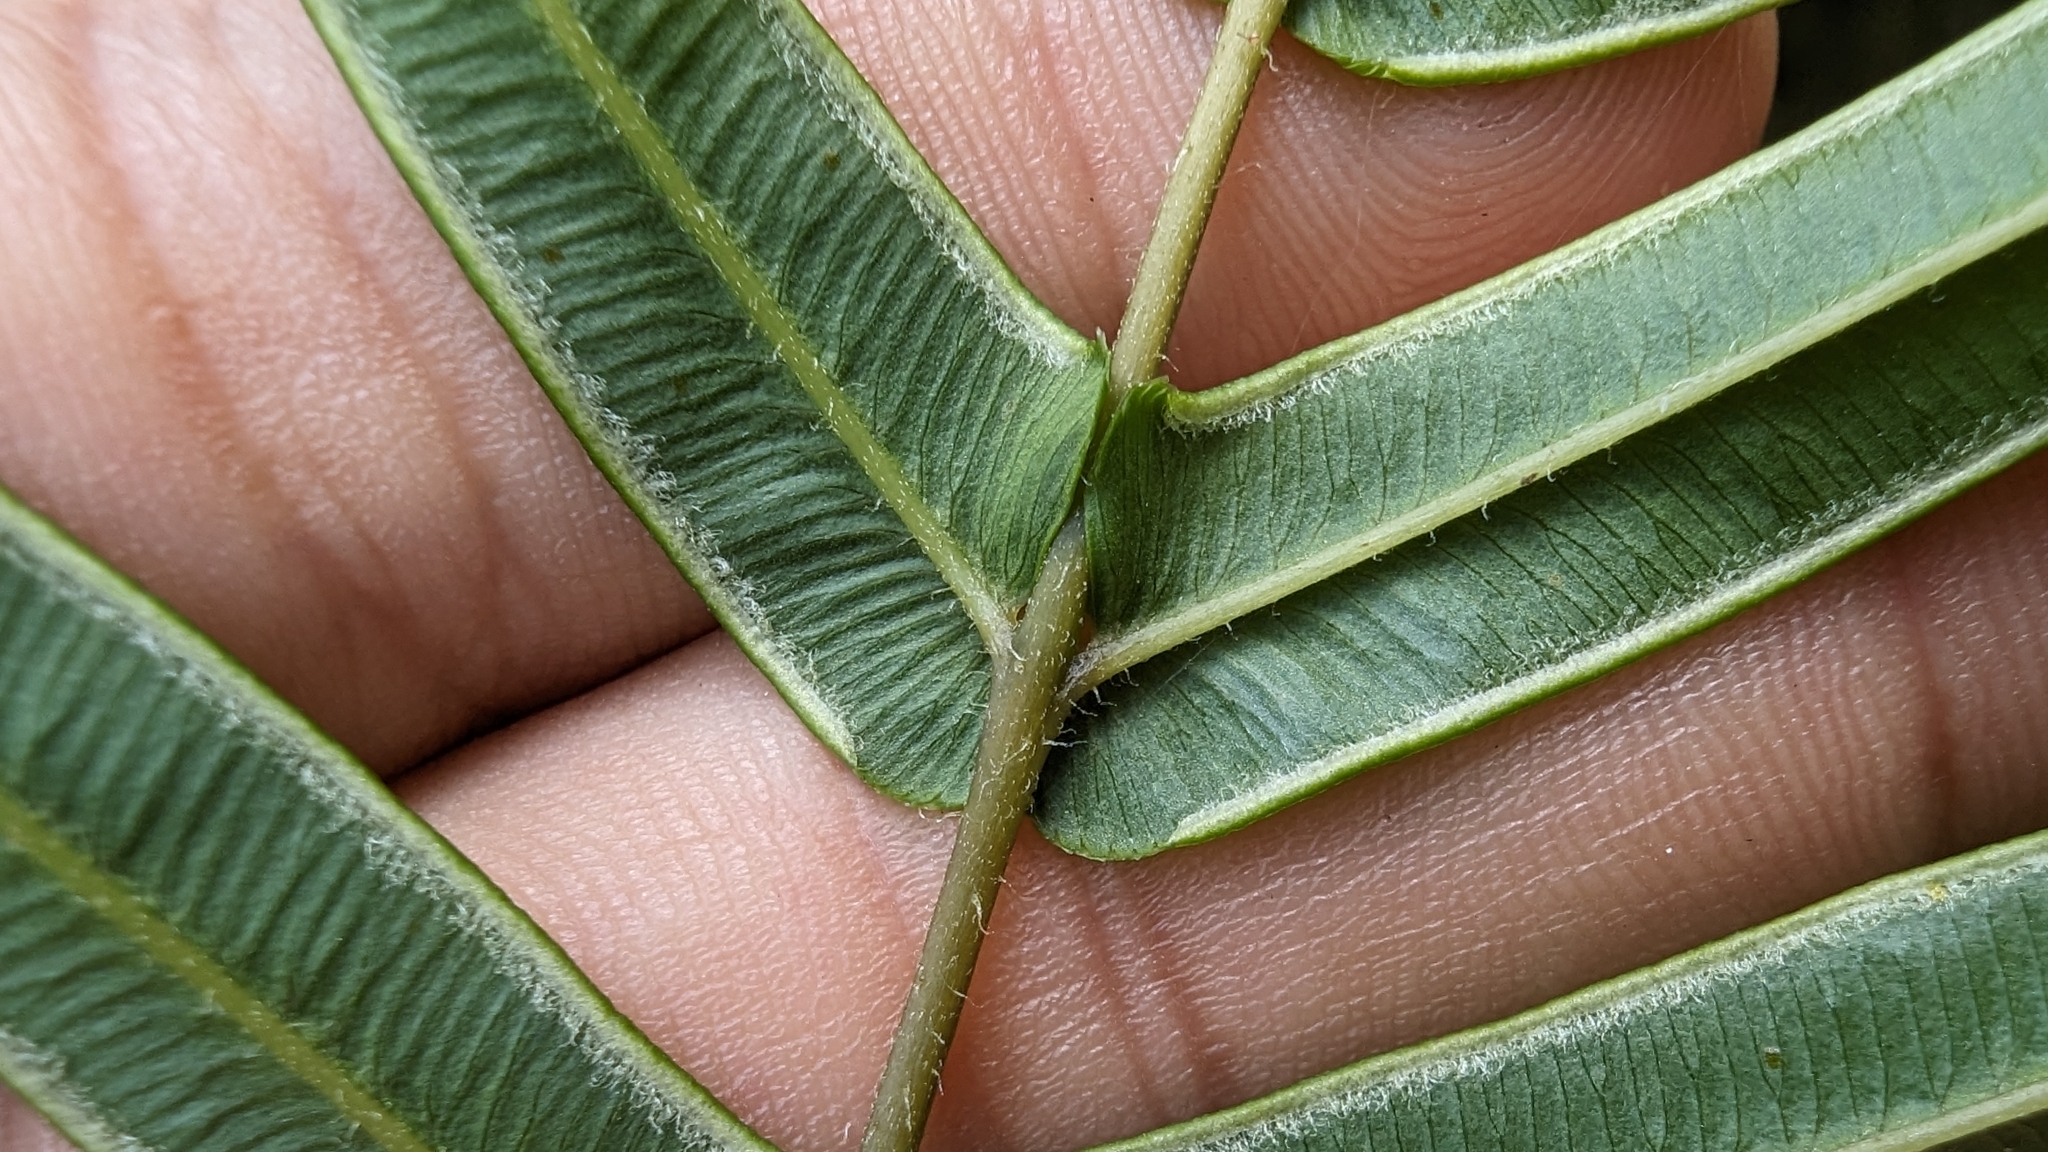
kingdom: Plantae
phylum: Tracheophyta
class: Polypodiopsida
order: Polypodiales
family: Pteridaceae
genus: Pteris
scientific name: Pteris vittata
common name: Ladder brake
